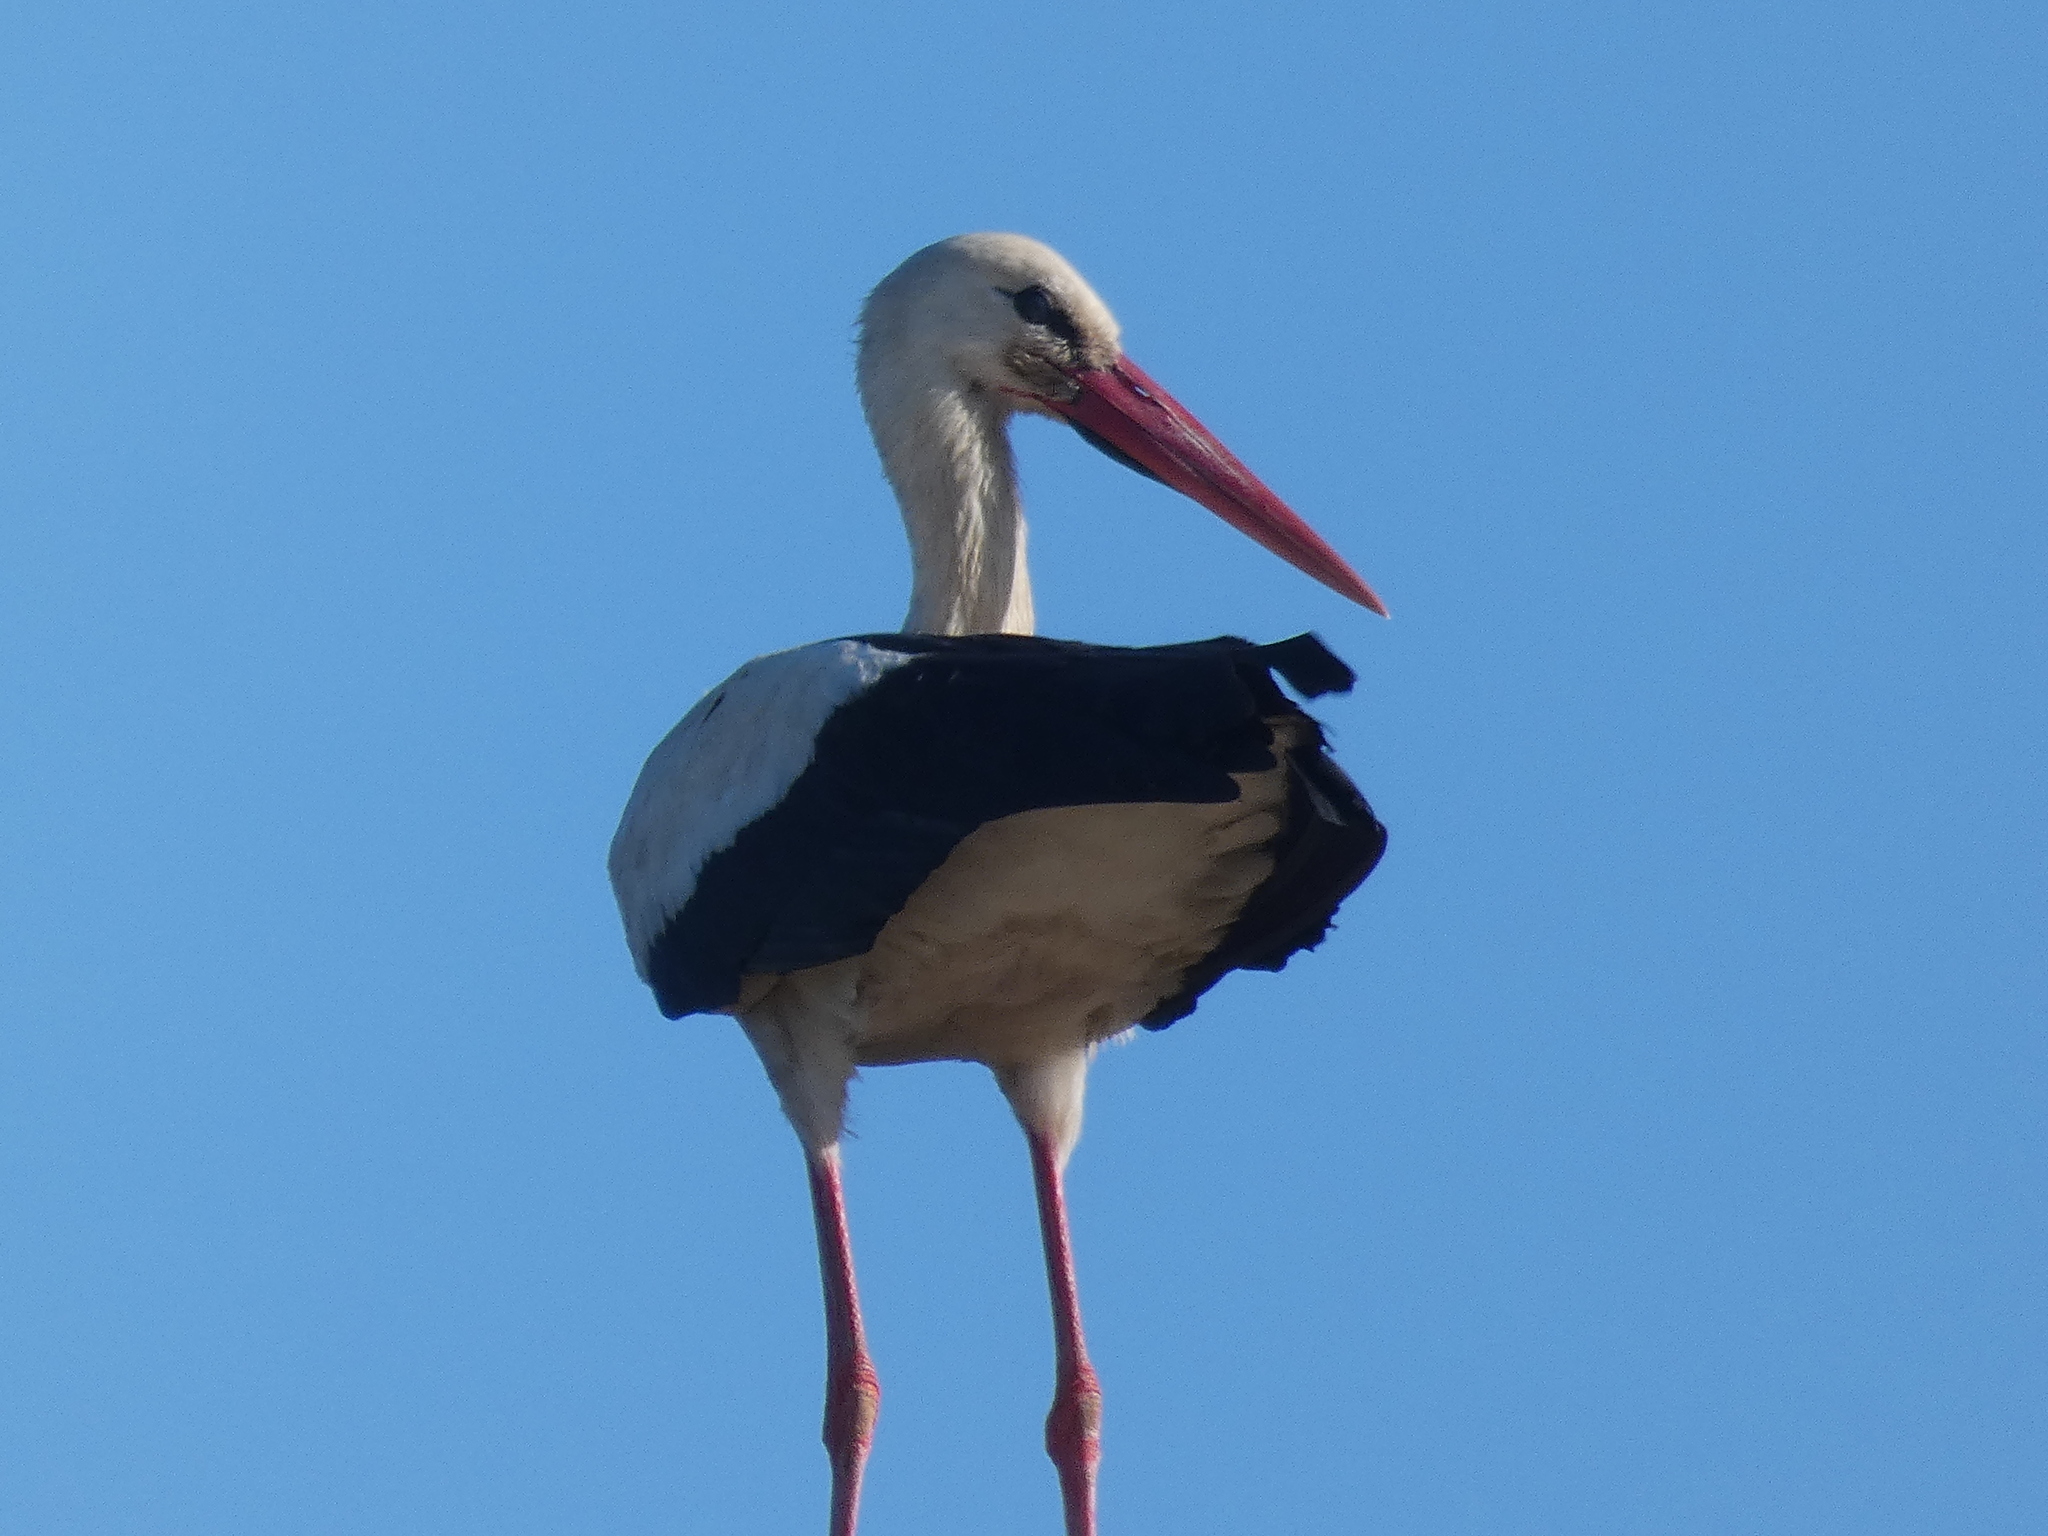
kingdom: Animalia
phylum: Chordata
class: Aves
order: Ciconiiformes
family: Ciconiidae
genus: Ciconia
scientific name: Ciconia ciconia
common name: White stork
